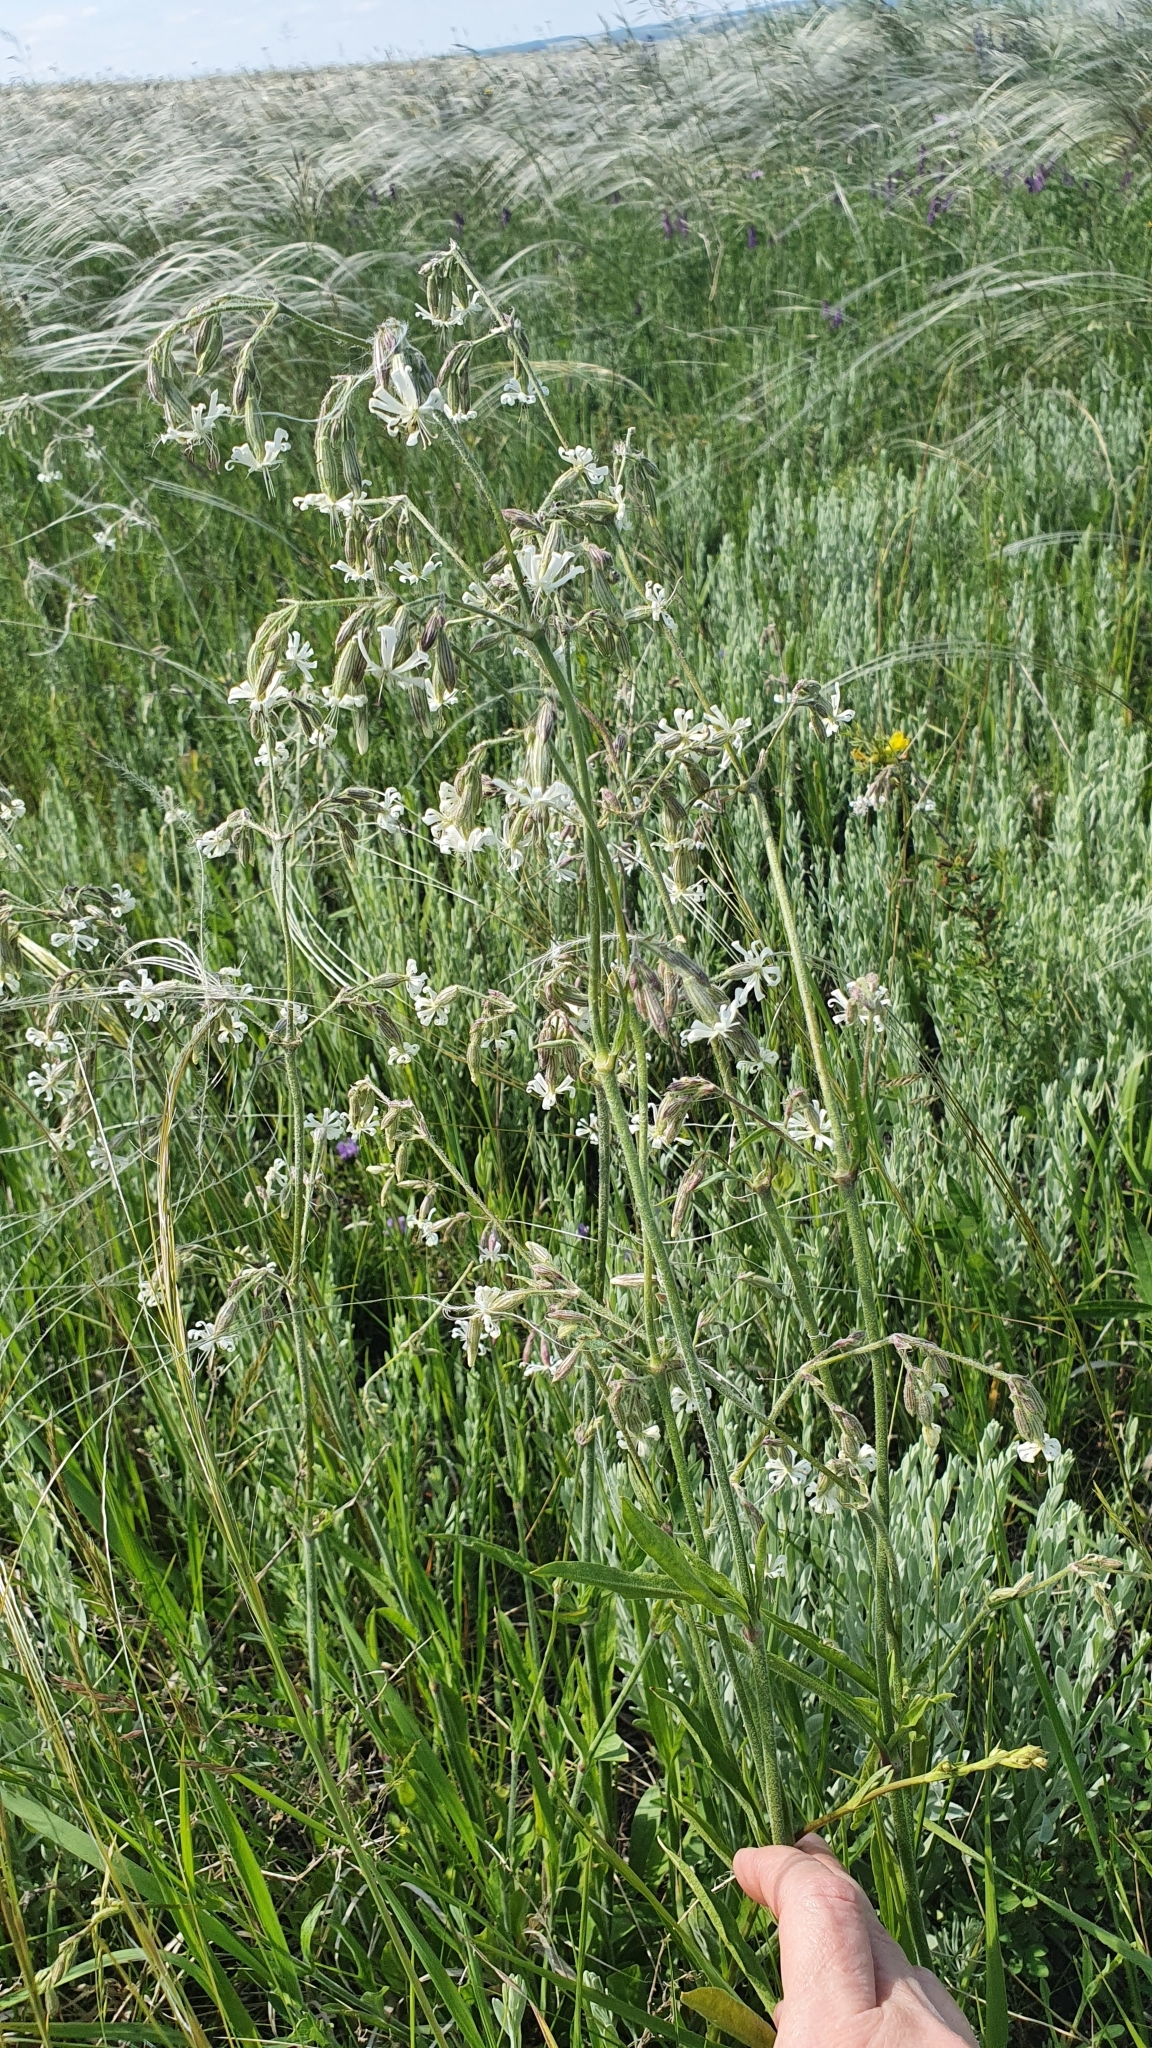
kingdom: Plantae
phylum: Tracheophyta
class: Magnoliopsida
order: Caryophyllales
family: Caryophyllaceae
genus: Silene
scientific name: Silene nutans
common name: Nottingham catchfly
